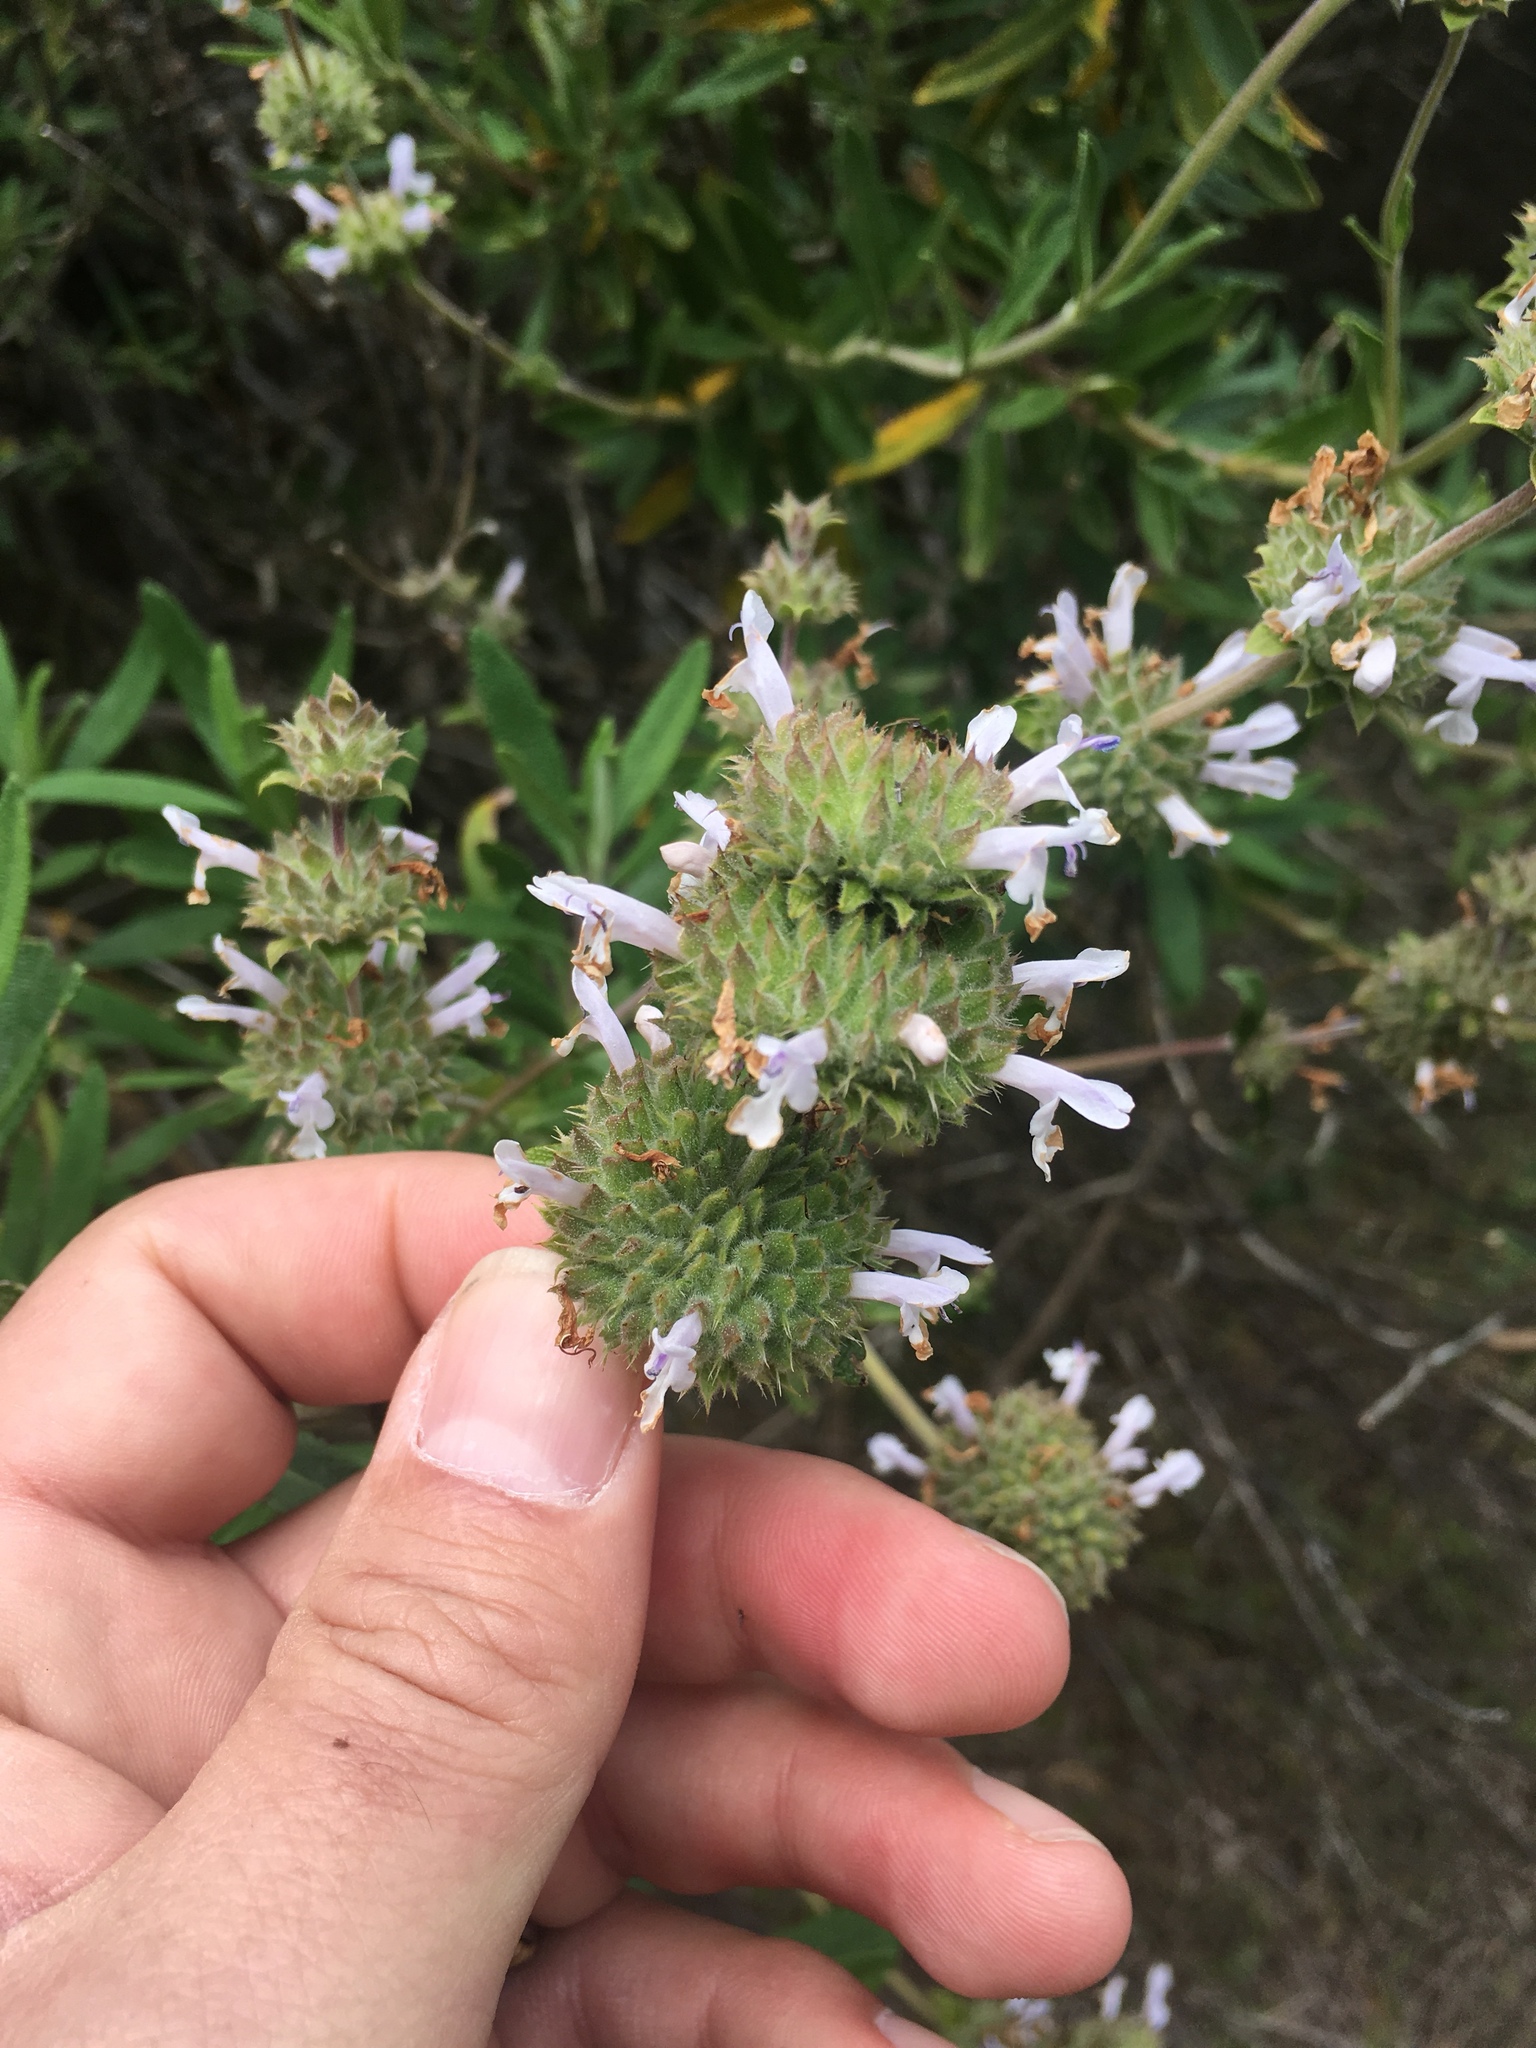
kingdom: Plantae
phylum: Tracheophyta
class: Magnoliopsida
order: Lamiales
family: Lamiaceae
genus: Salvia
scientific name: Salvia mellifera
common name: Black sage
